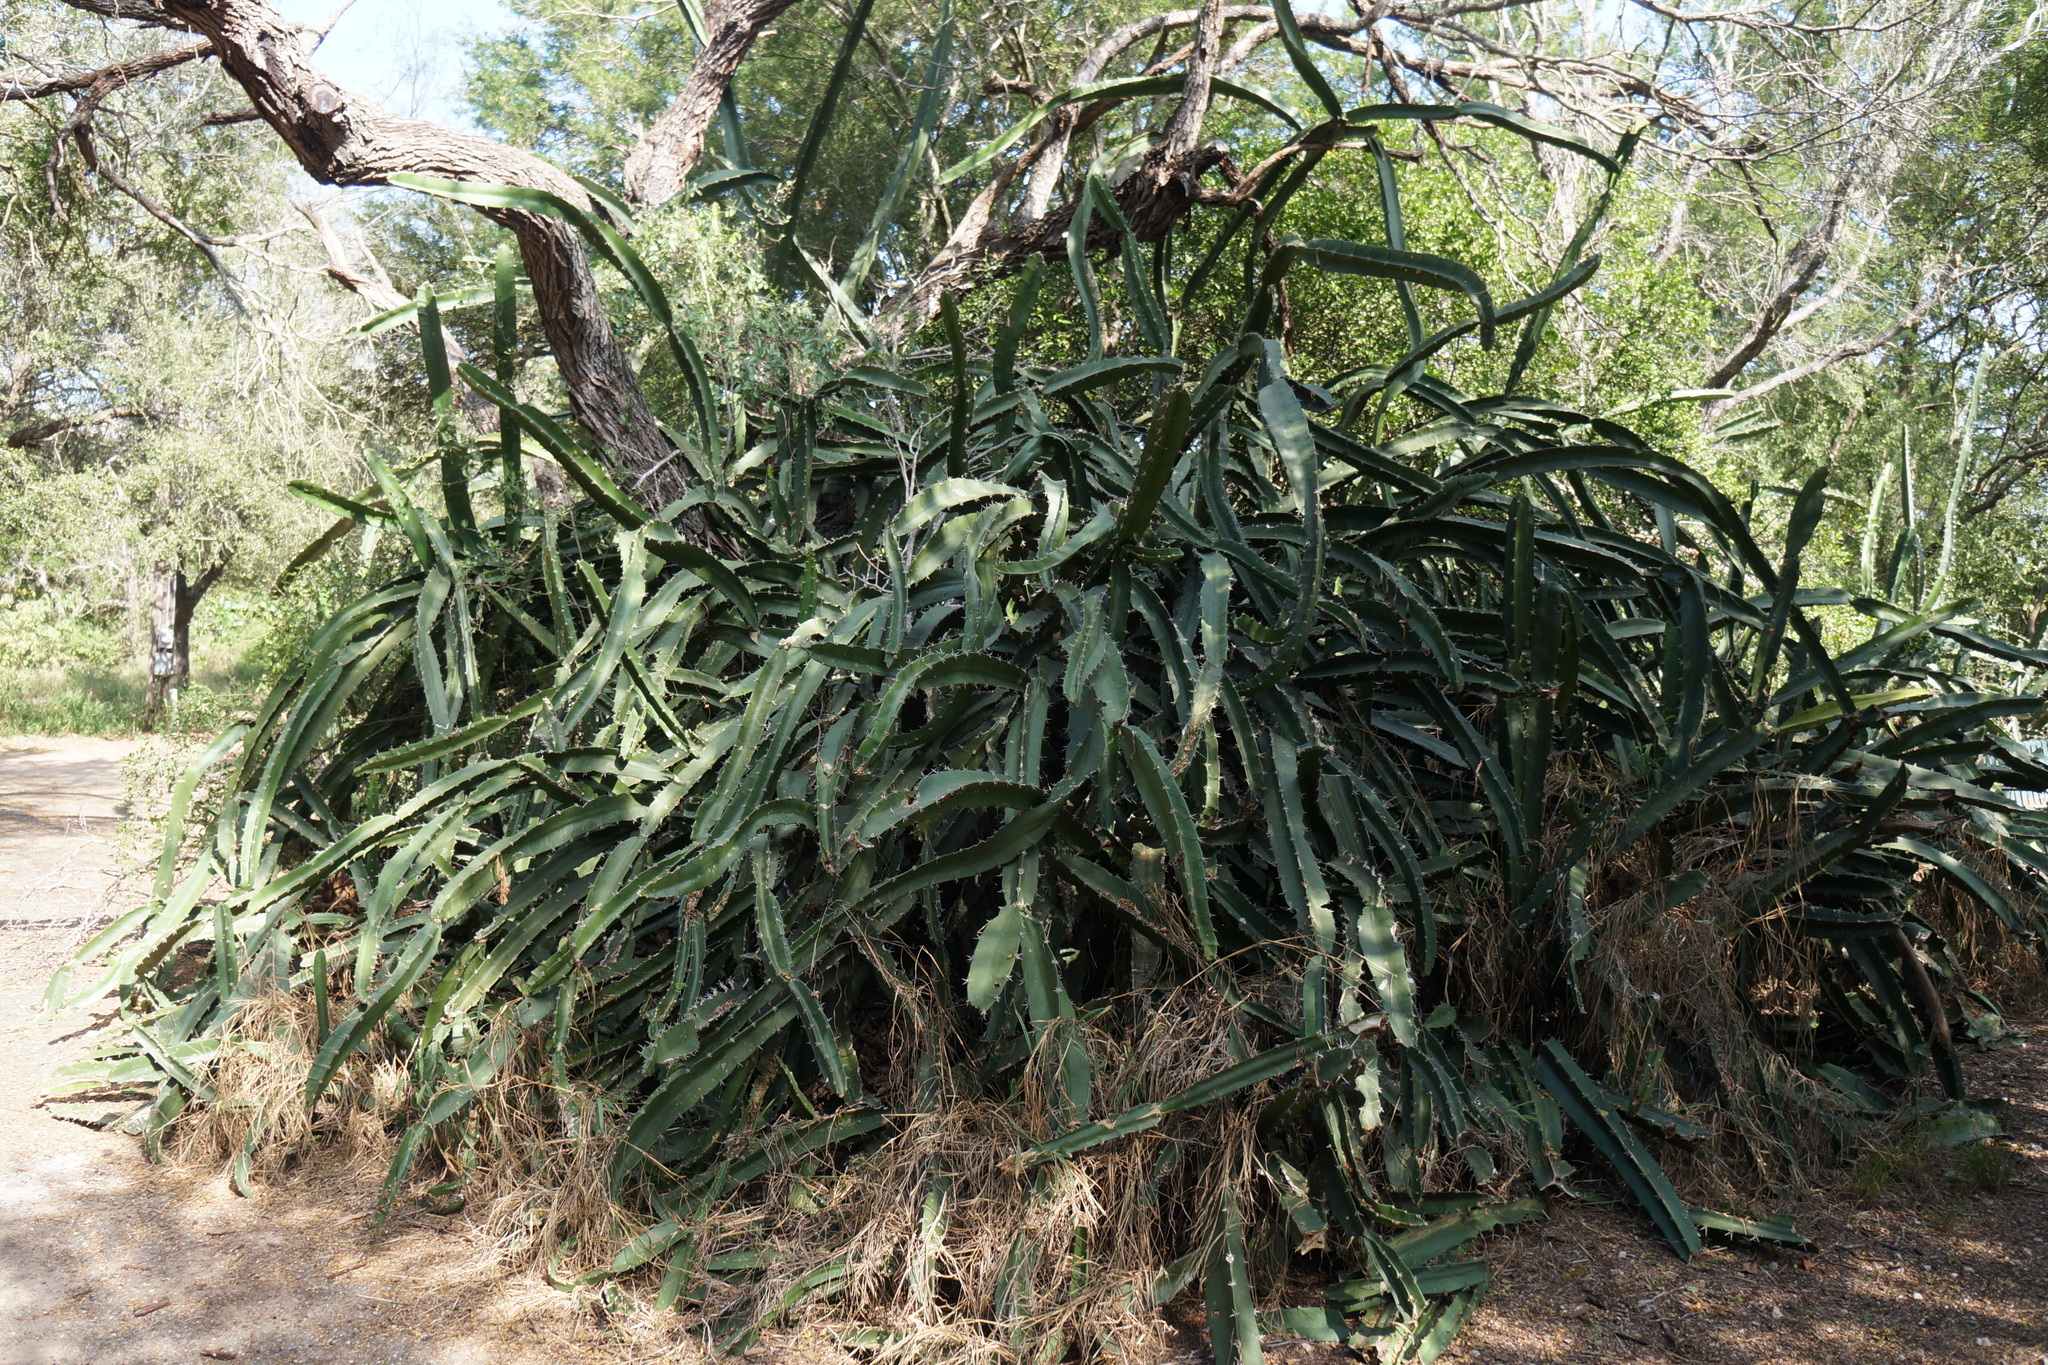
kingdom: Plantae
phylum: Tracheophyta
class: Magnoliopsida
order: Caryophyllales
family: Cactaceae
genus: Acanthocereus
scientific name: Acanthocereus tetragonus
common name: Triangle cactus
